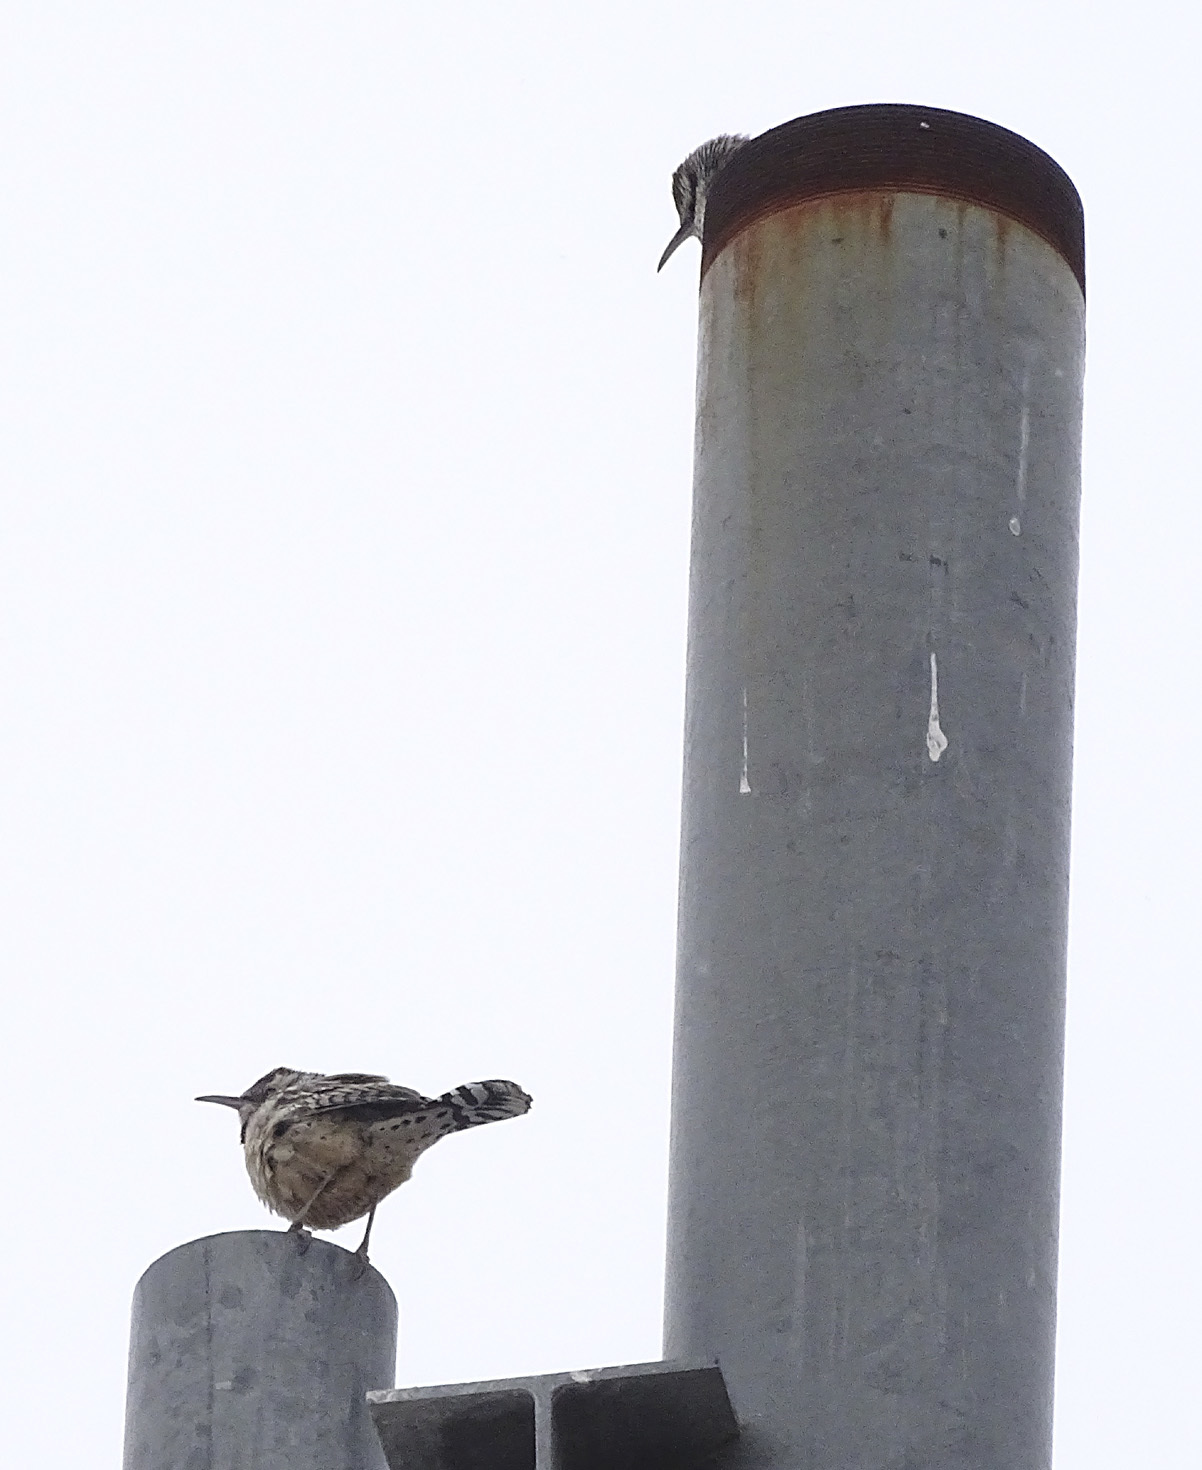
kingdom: Animalia
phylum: Chordata
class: Aves
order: Passeriformes
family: Troglodytidae
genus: Campylorhynchus
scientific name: Campylorhynchus brunneicapillus
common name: Cactus wren
